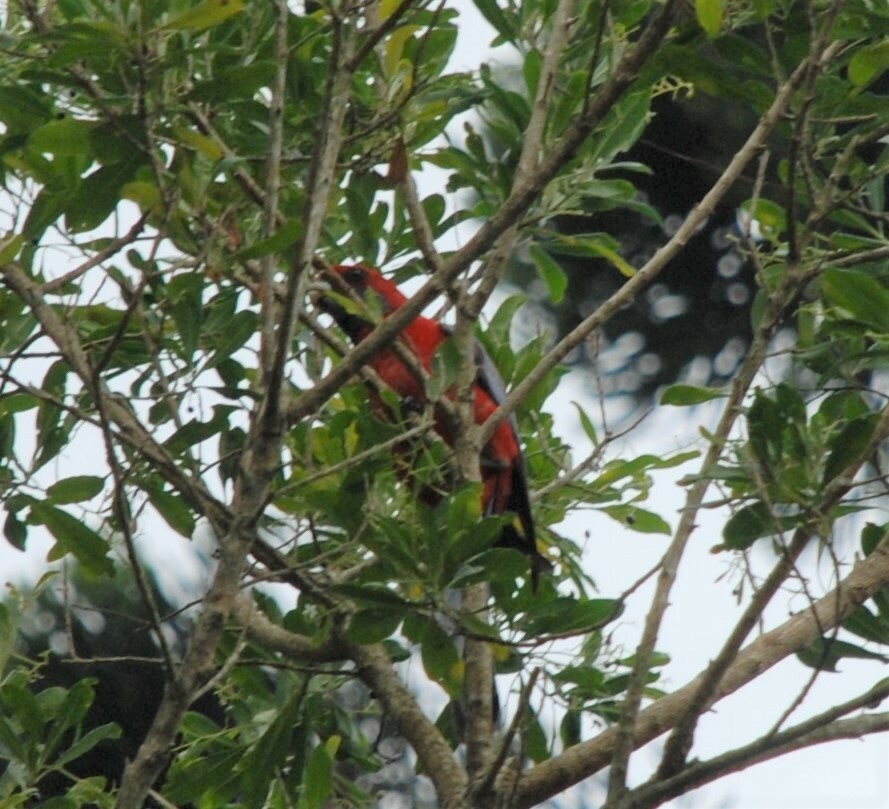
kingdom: Animalia
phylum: Chordata
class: Aves
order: Psittaciformes
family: Psittacidae
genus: Platycercus
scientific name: Platycercus elegans
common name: Crimson rosella
